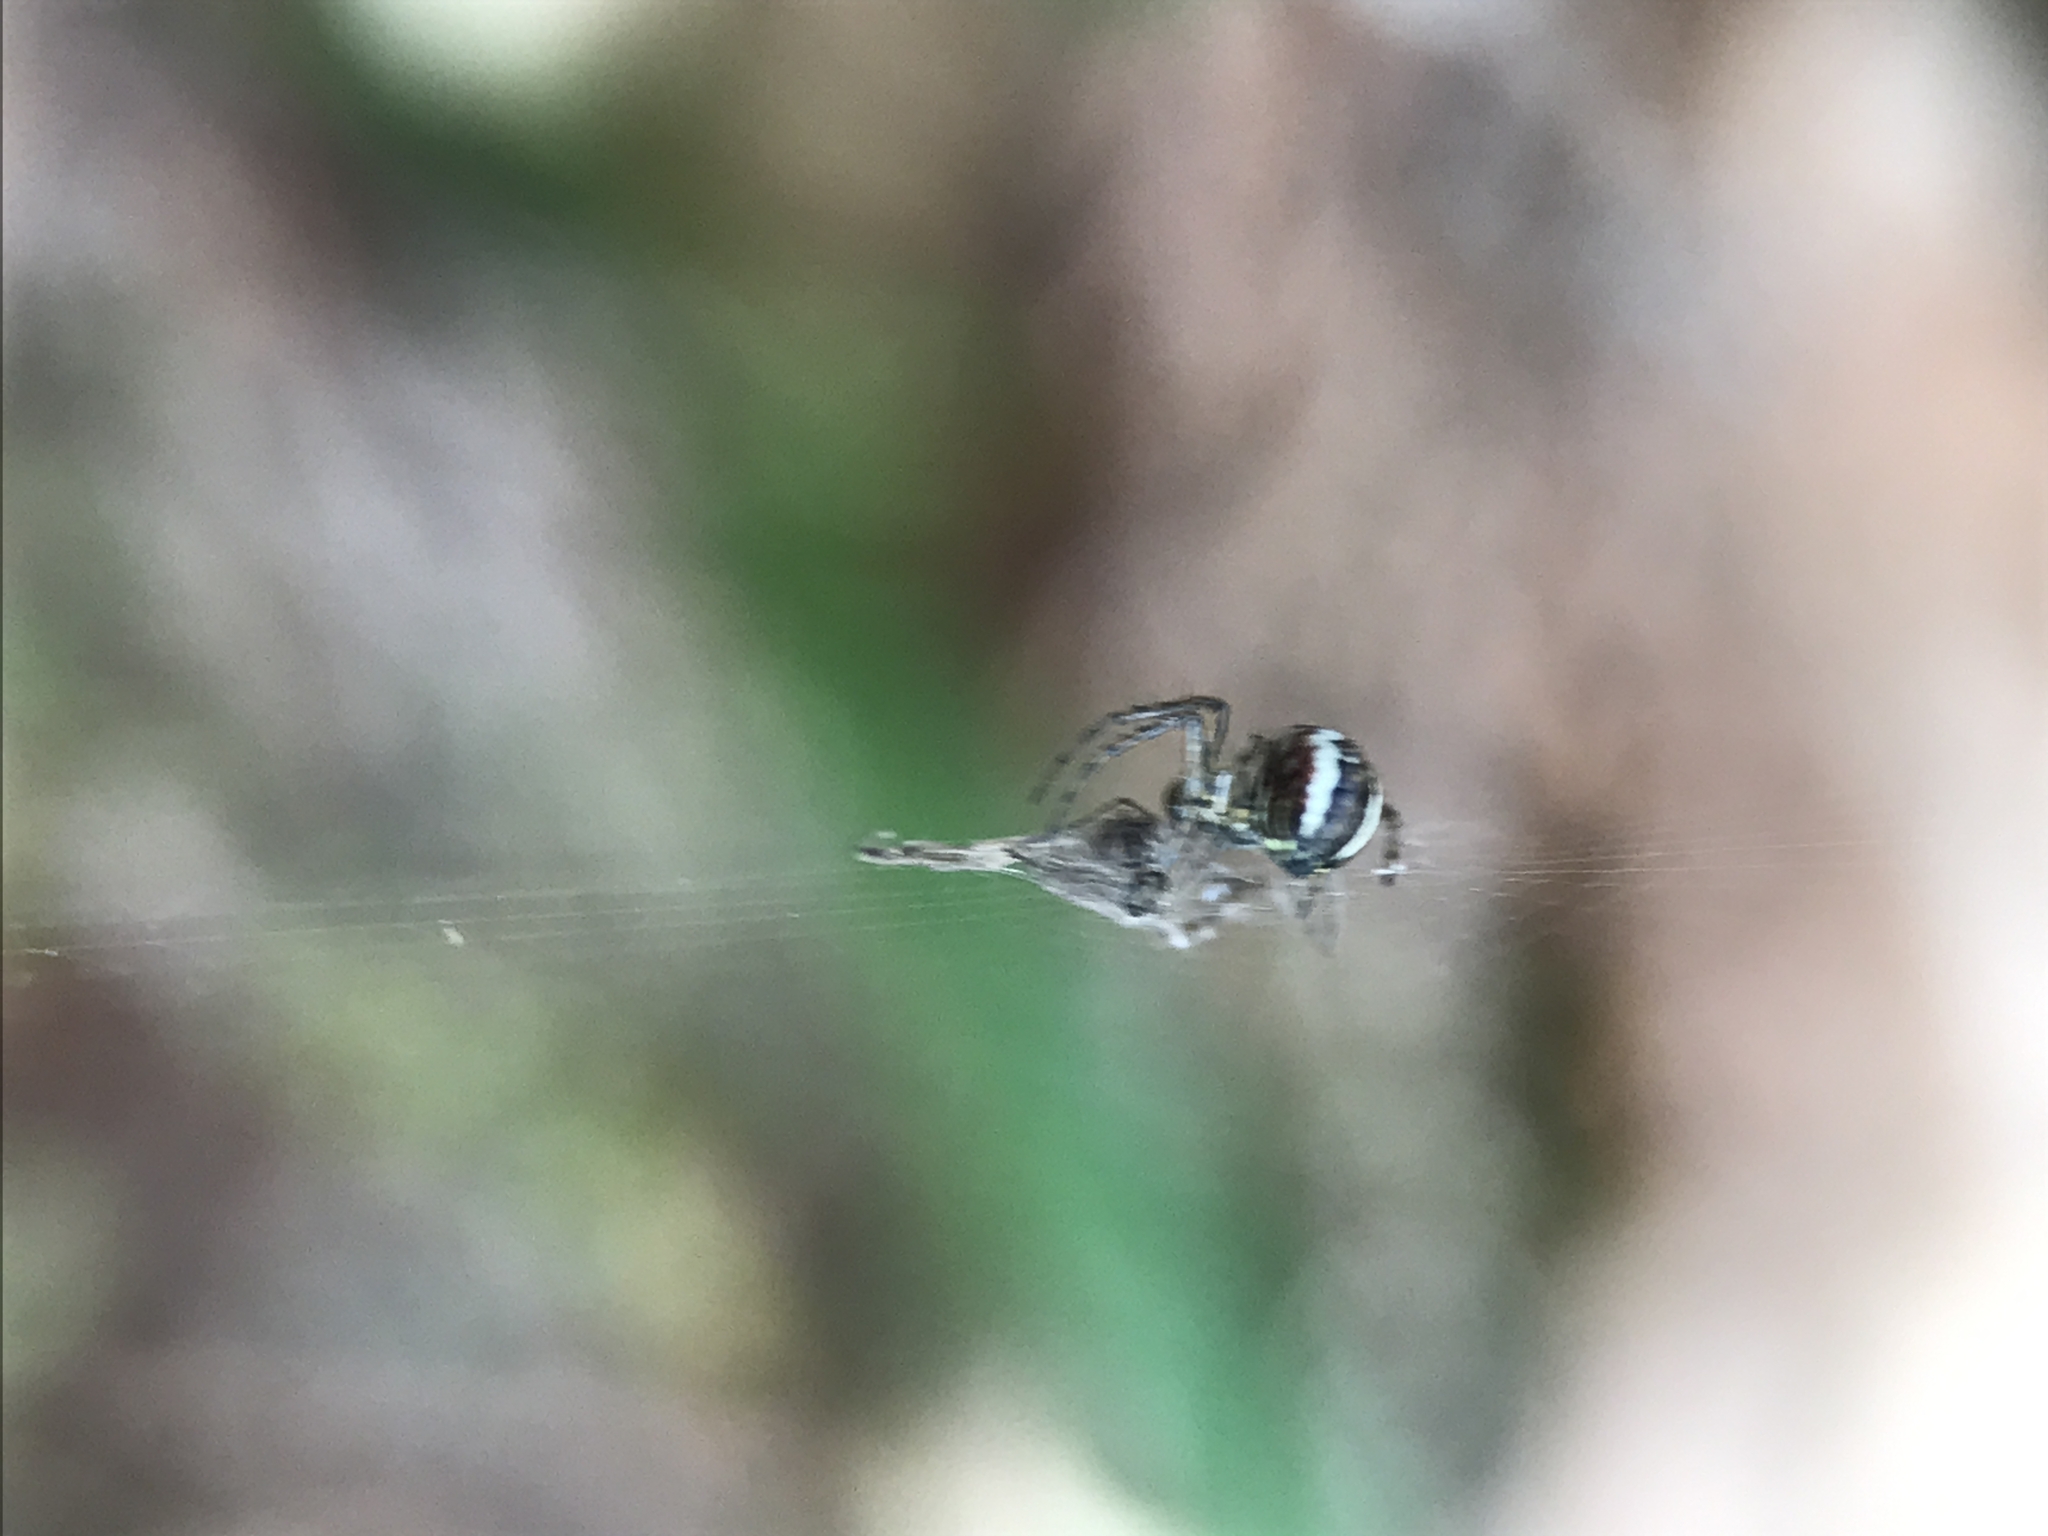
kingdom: Animalia
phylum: Arthropoda
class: Arachnida
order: Araneae
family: Araneidae
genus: Mangora
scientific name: Mangora acalypha
